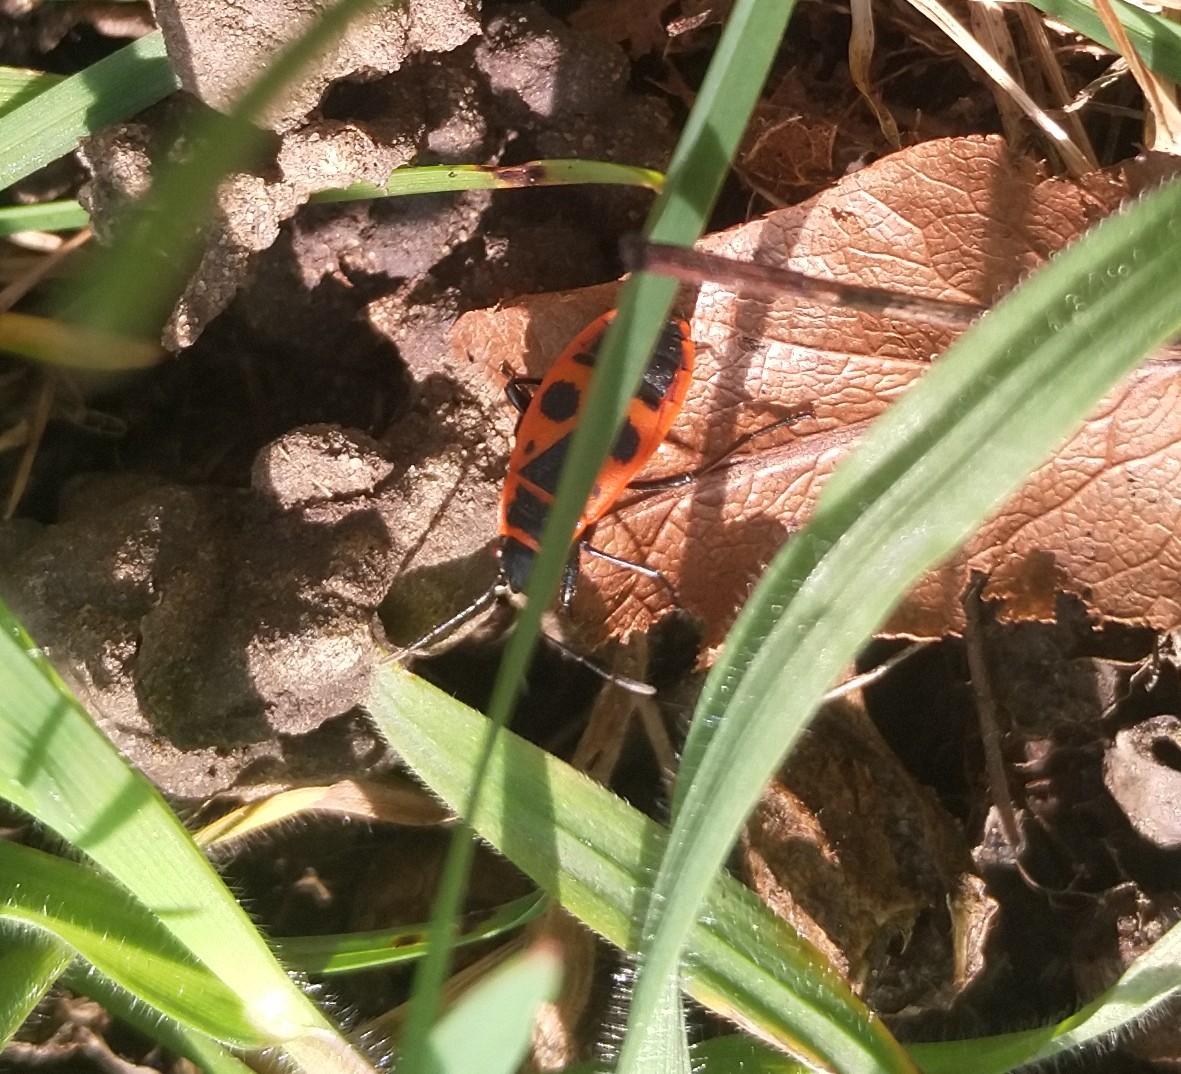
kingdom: Animalia
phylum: Arthropoda
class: Insecta
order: Hemiptera
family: Pyrrhocoridae
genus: Pyrrhocoris
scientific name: Pyrrhocoris apterus
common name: Firebug
